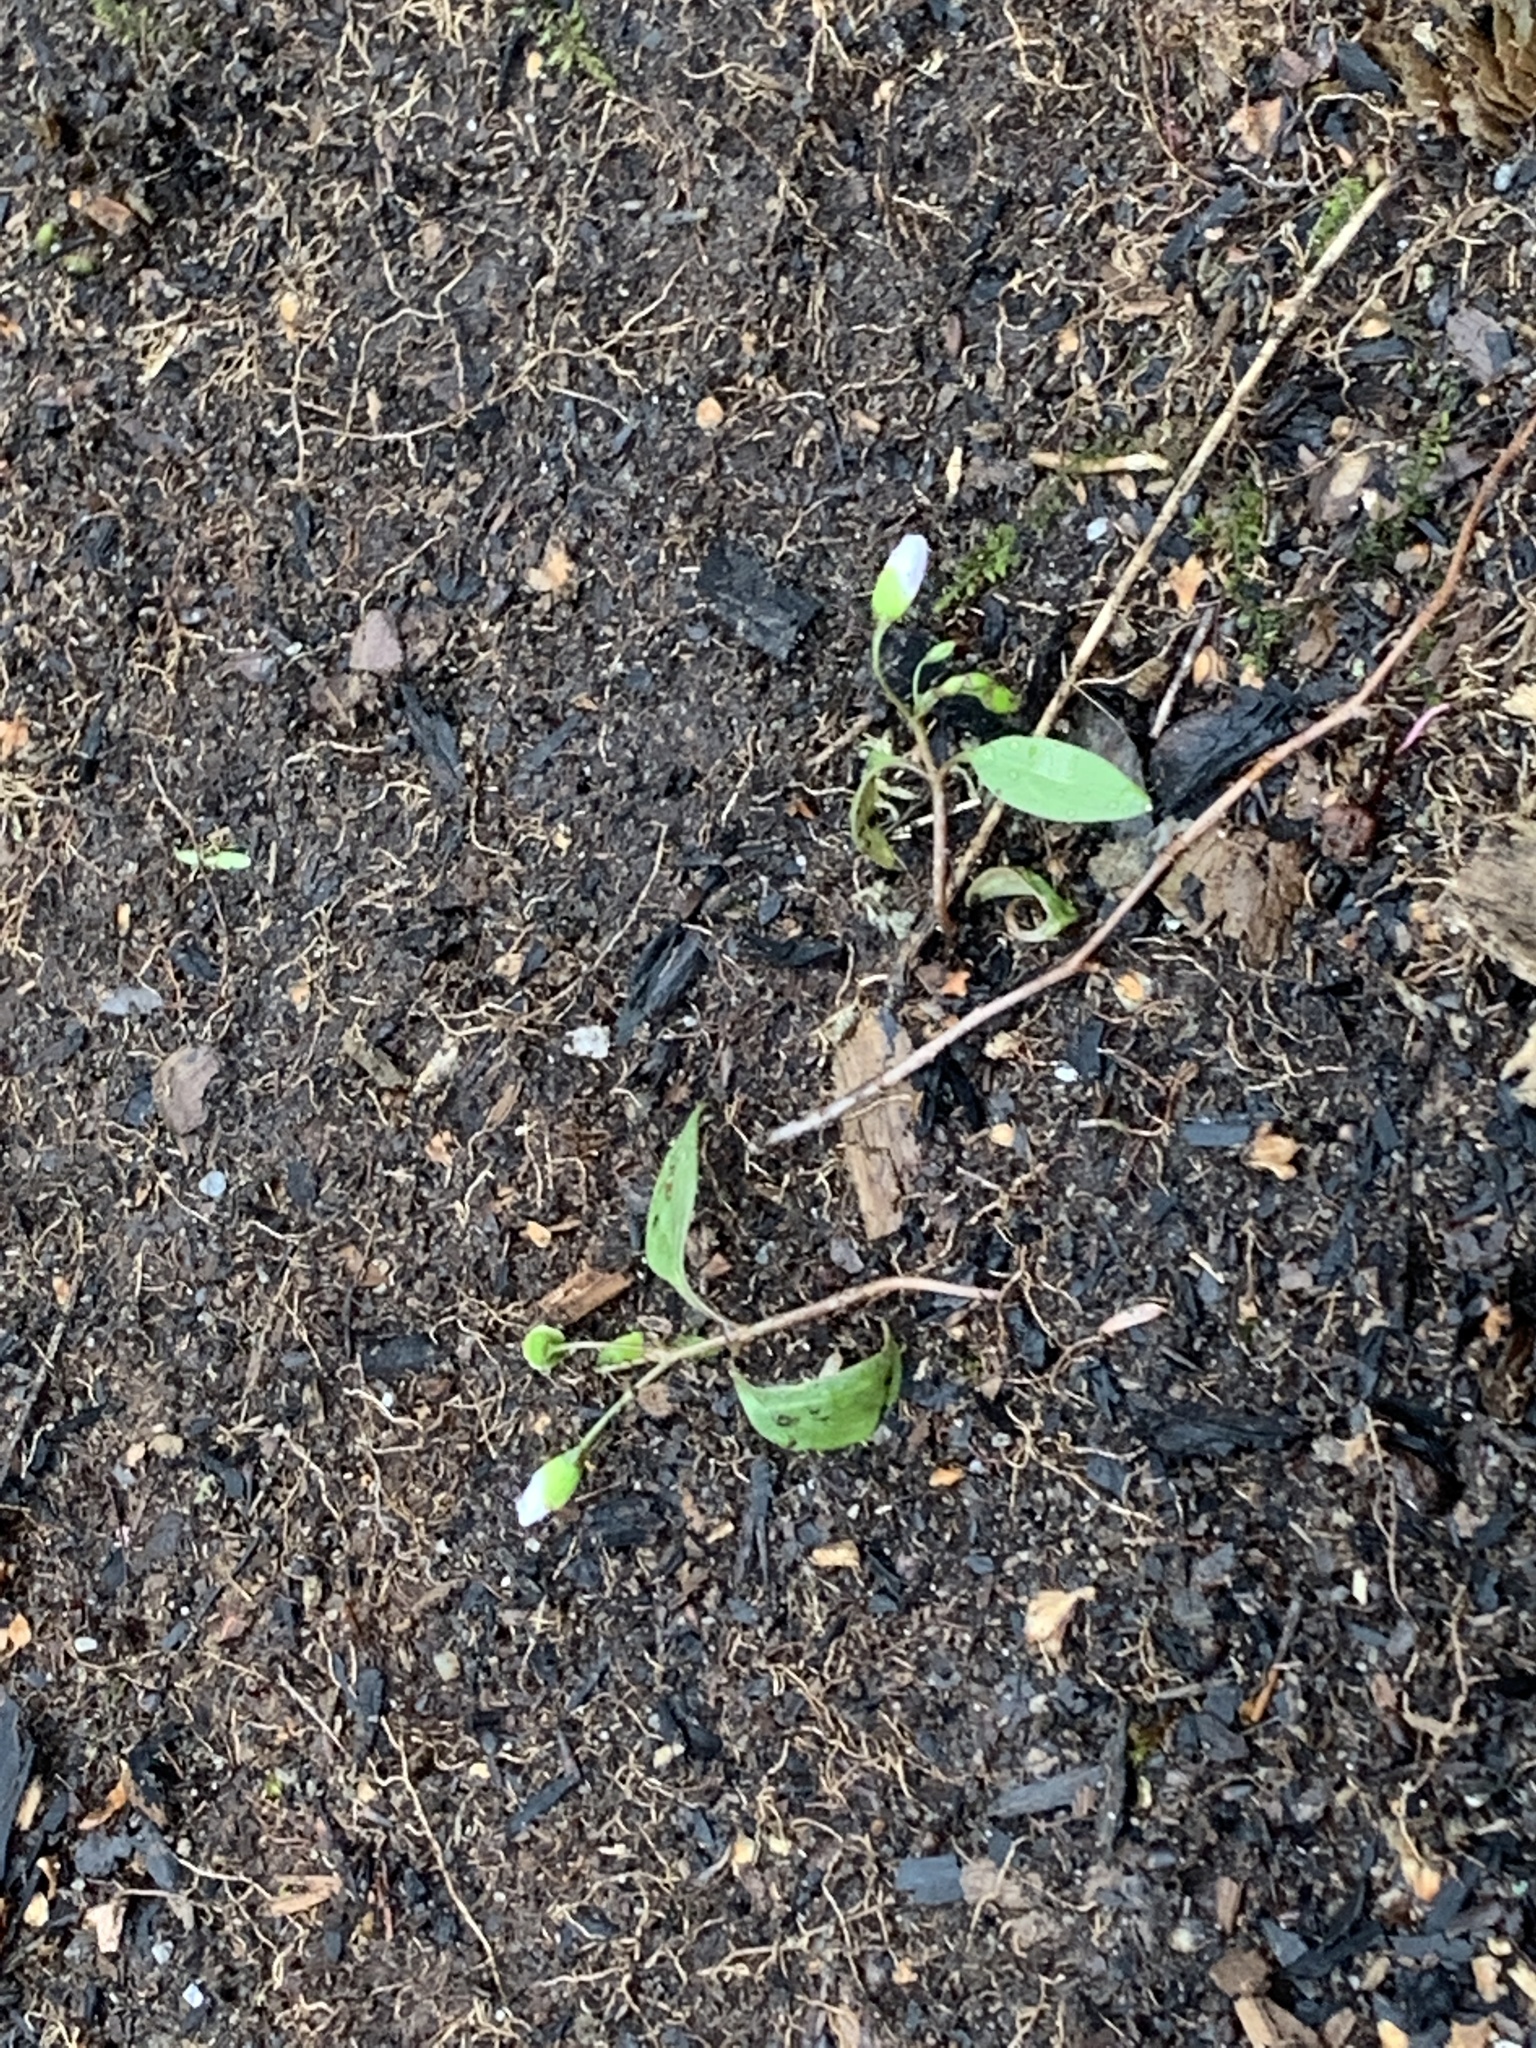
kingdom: Plantae
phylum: Tracheophyta
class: Magnoliopsida
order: Caryophyllales
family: Montiaceae
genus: Claytonia
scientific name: Claytonia caroliniana
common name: Carolina spring beauty
